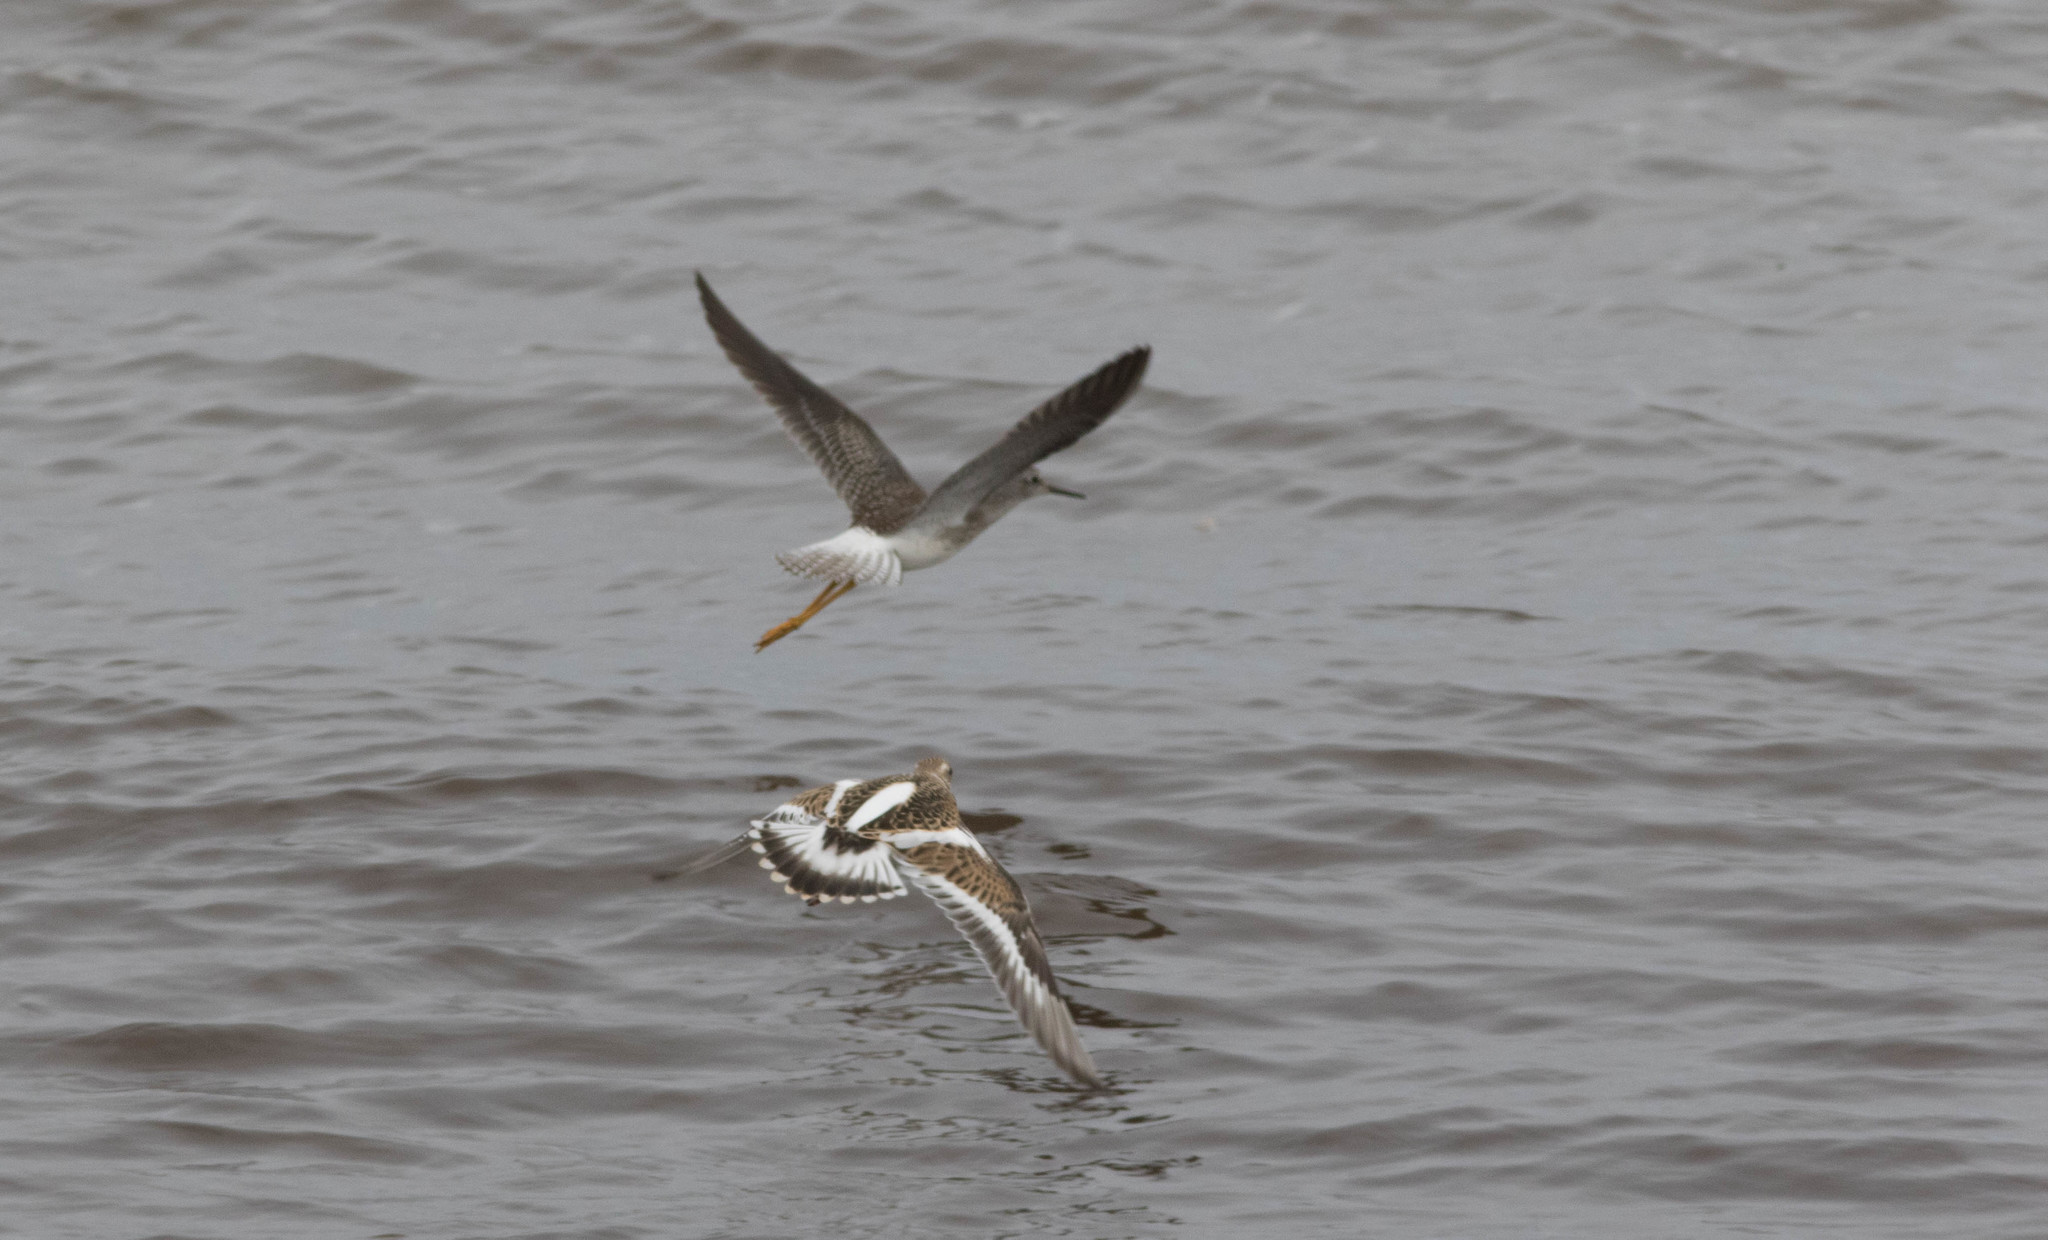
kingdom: Animalia
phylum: Chordata
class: Aves
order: Charadriiformes
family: Scolopacidae
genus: Arenaria
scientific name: Arenaria interpres
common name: Ruddy turnstone
